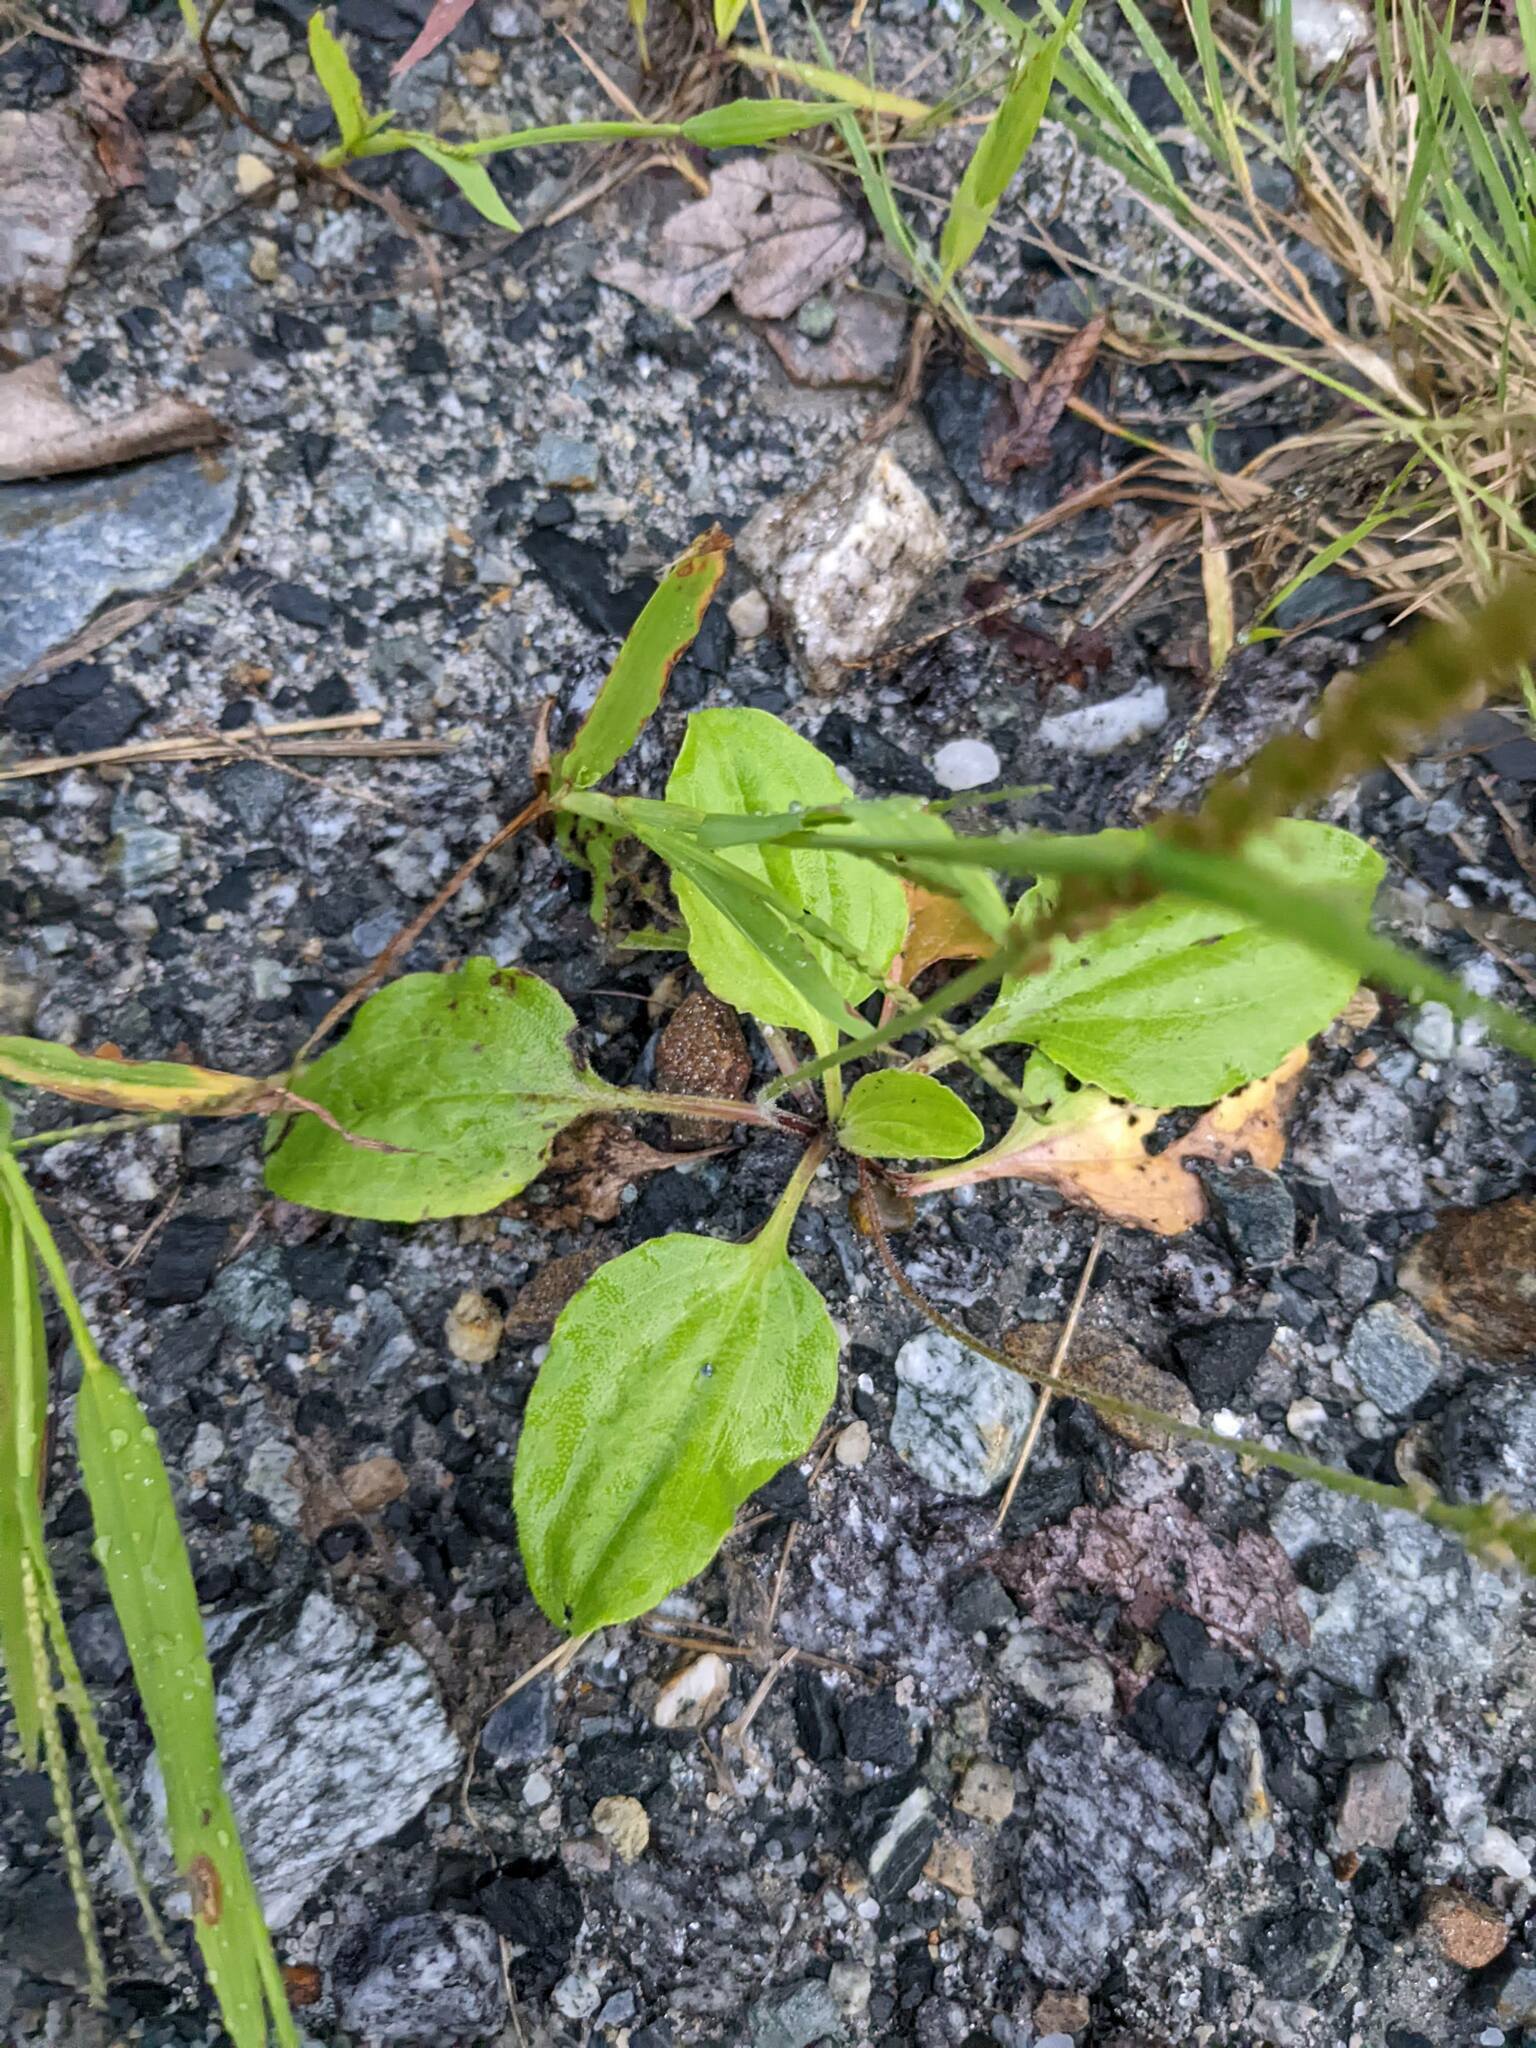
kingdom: Plantae
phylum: Tracheophyta
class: Magnoliopsida
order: Lamiales
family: Plantaginaceae
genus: Plantago
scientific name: Plantago rugelii
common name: American plantain
